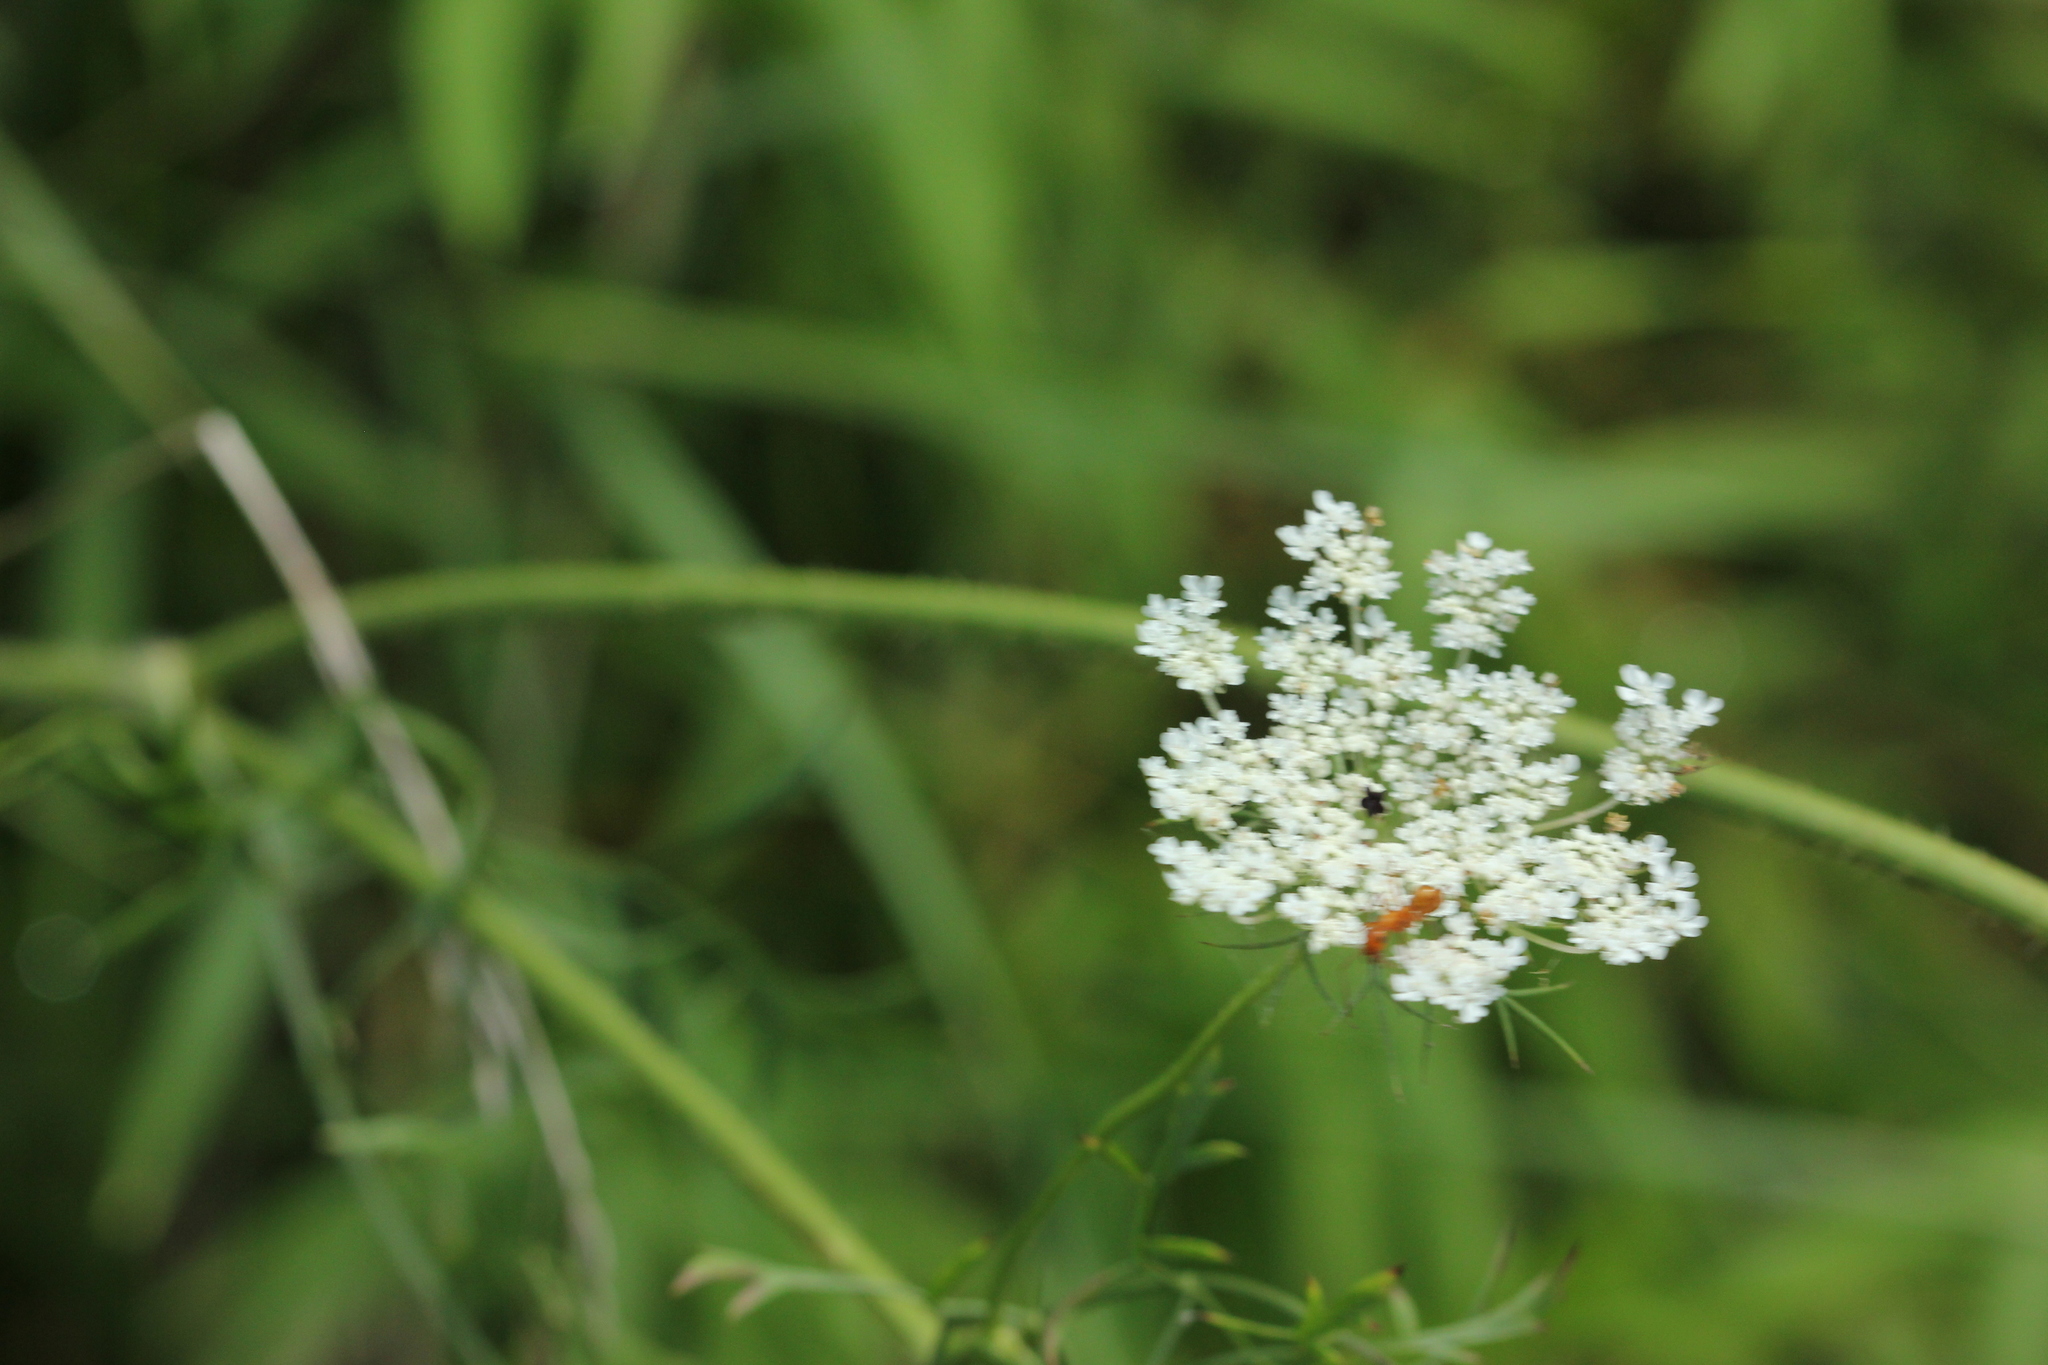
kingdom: Plantae
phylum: Tracheophyta
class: Magnoliopsida
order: Apiales
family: Apiaceae
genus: Daucus
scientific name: Daucus carota
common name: Wild carrot
